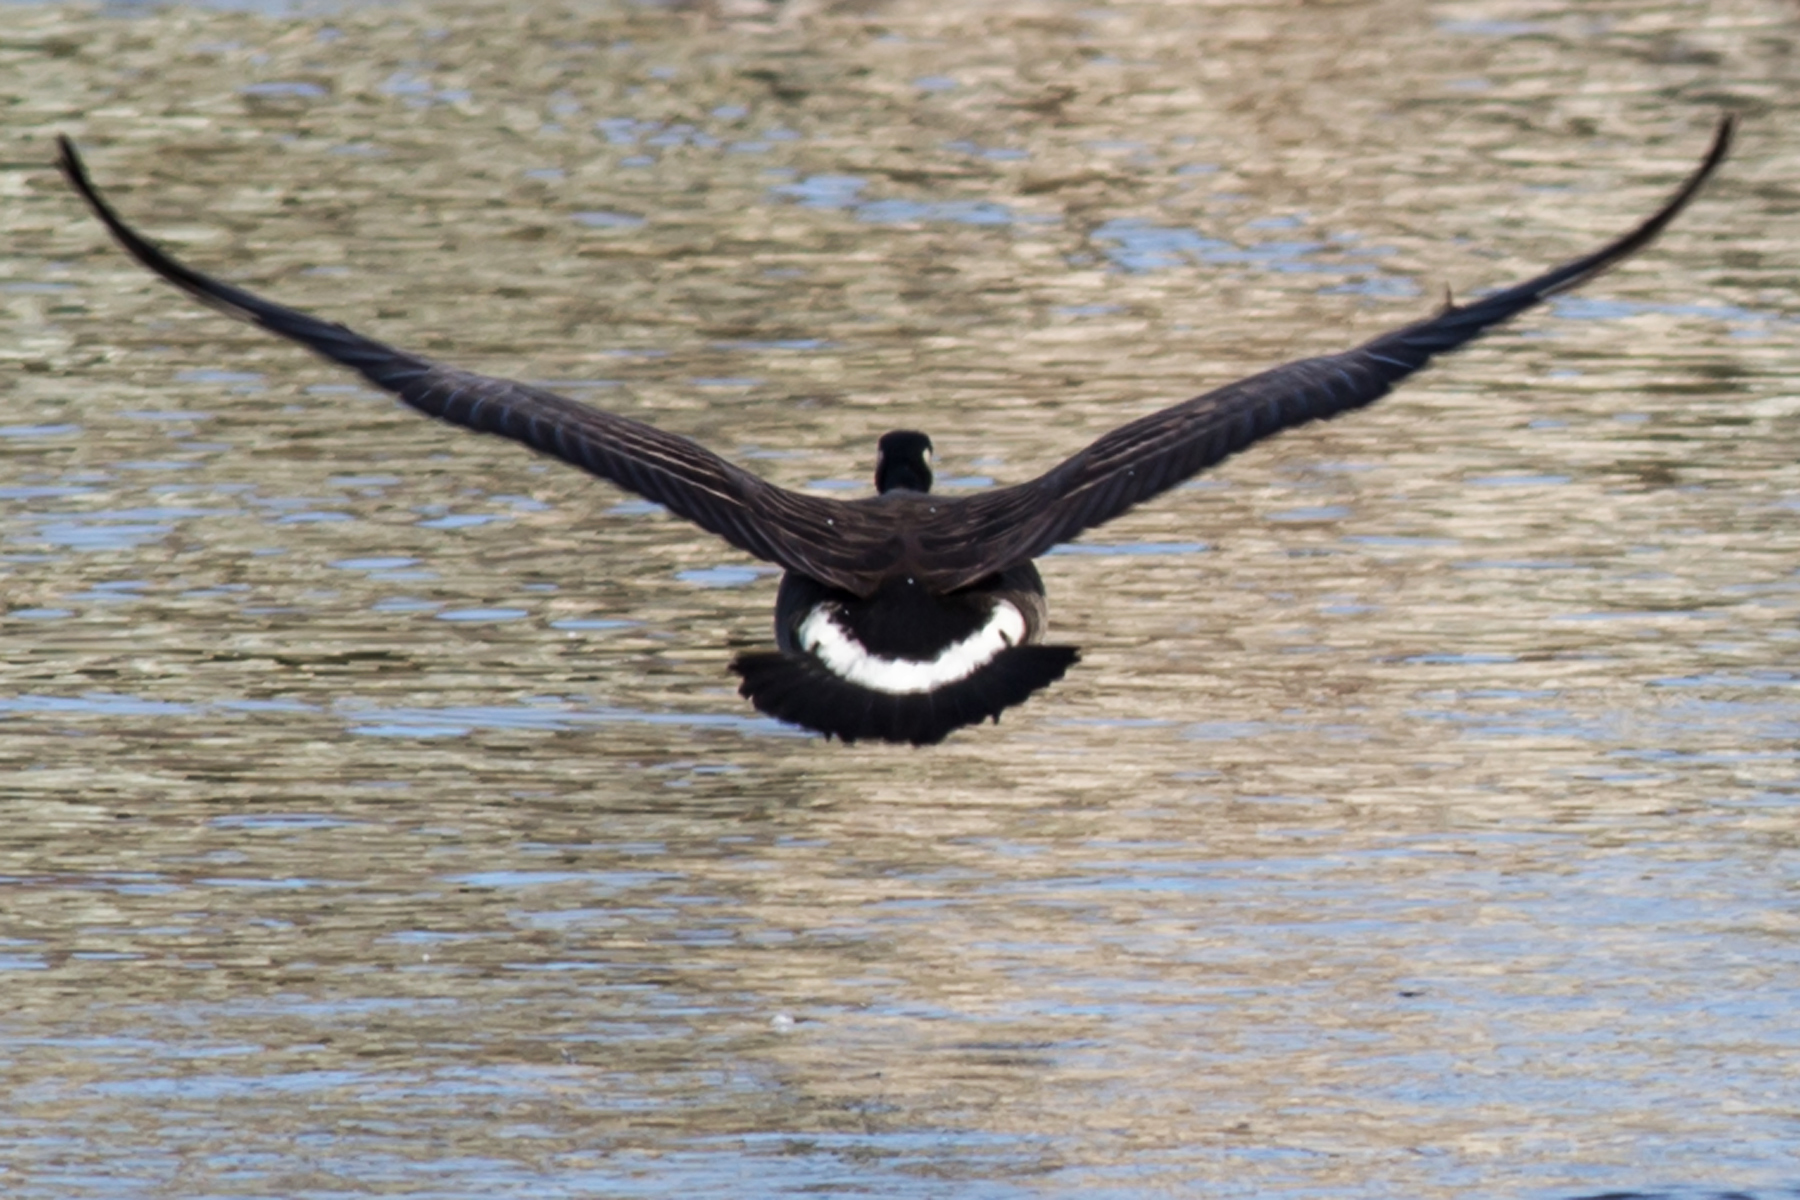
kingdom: Animalia
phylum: Chordata
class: Aves
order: Anseriformes
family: Anatidae
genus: Branta
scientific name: Branta canadensis
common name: Canada goose
